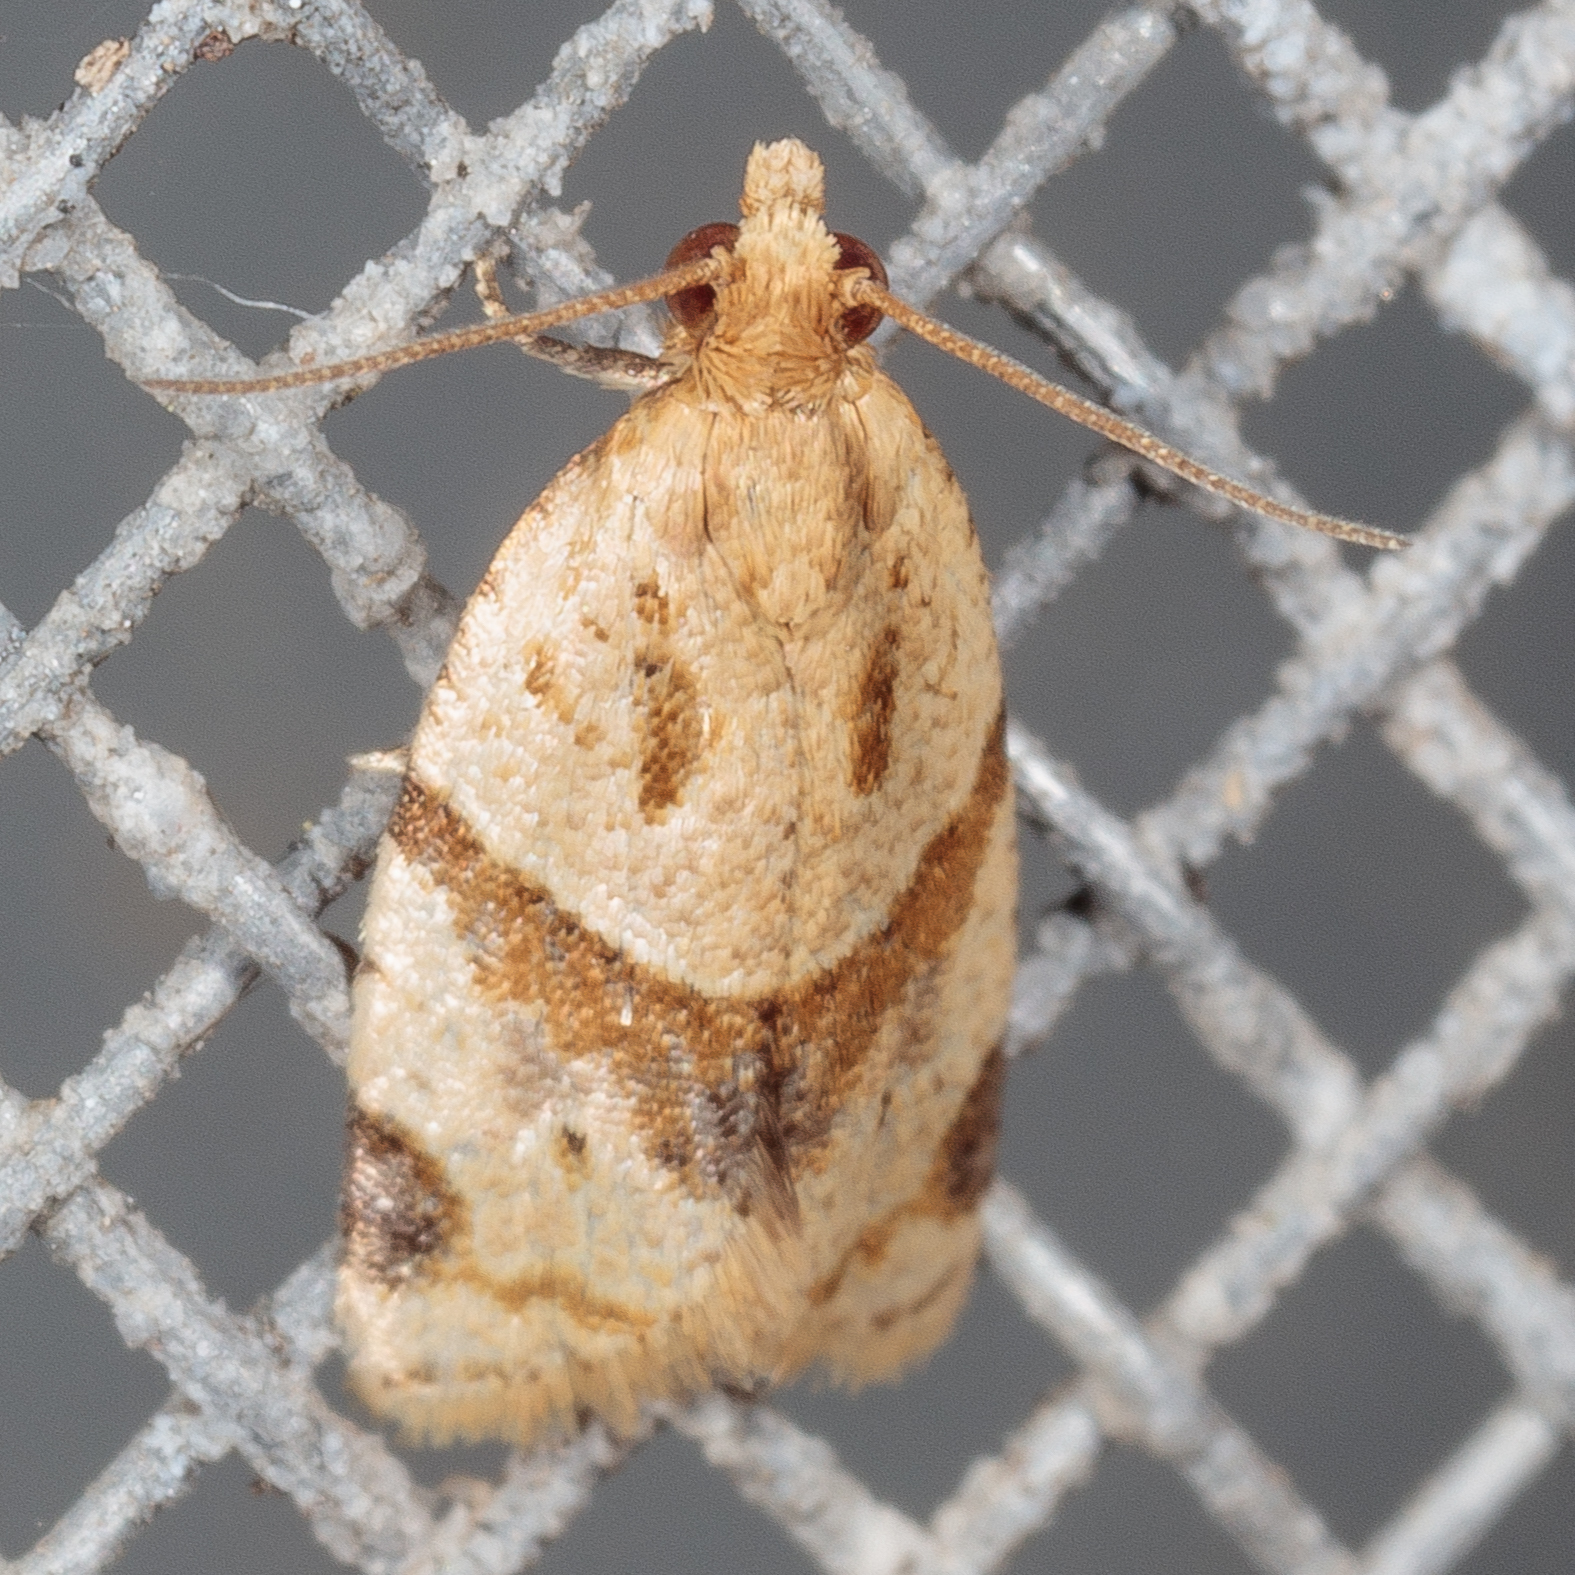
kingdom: Animalia
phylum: Arthropoda
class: Insecta
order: Lepidoptera
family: Tortricidae
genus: Clepsis
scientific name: Clepsis peritana
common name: Garden tortrix
